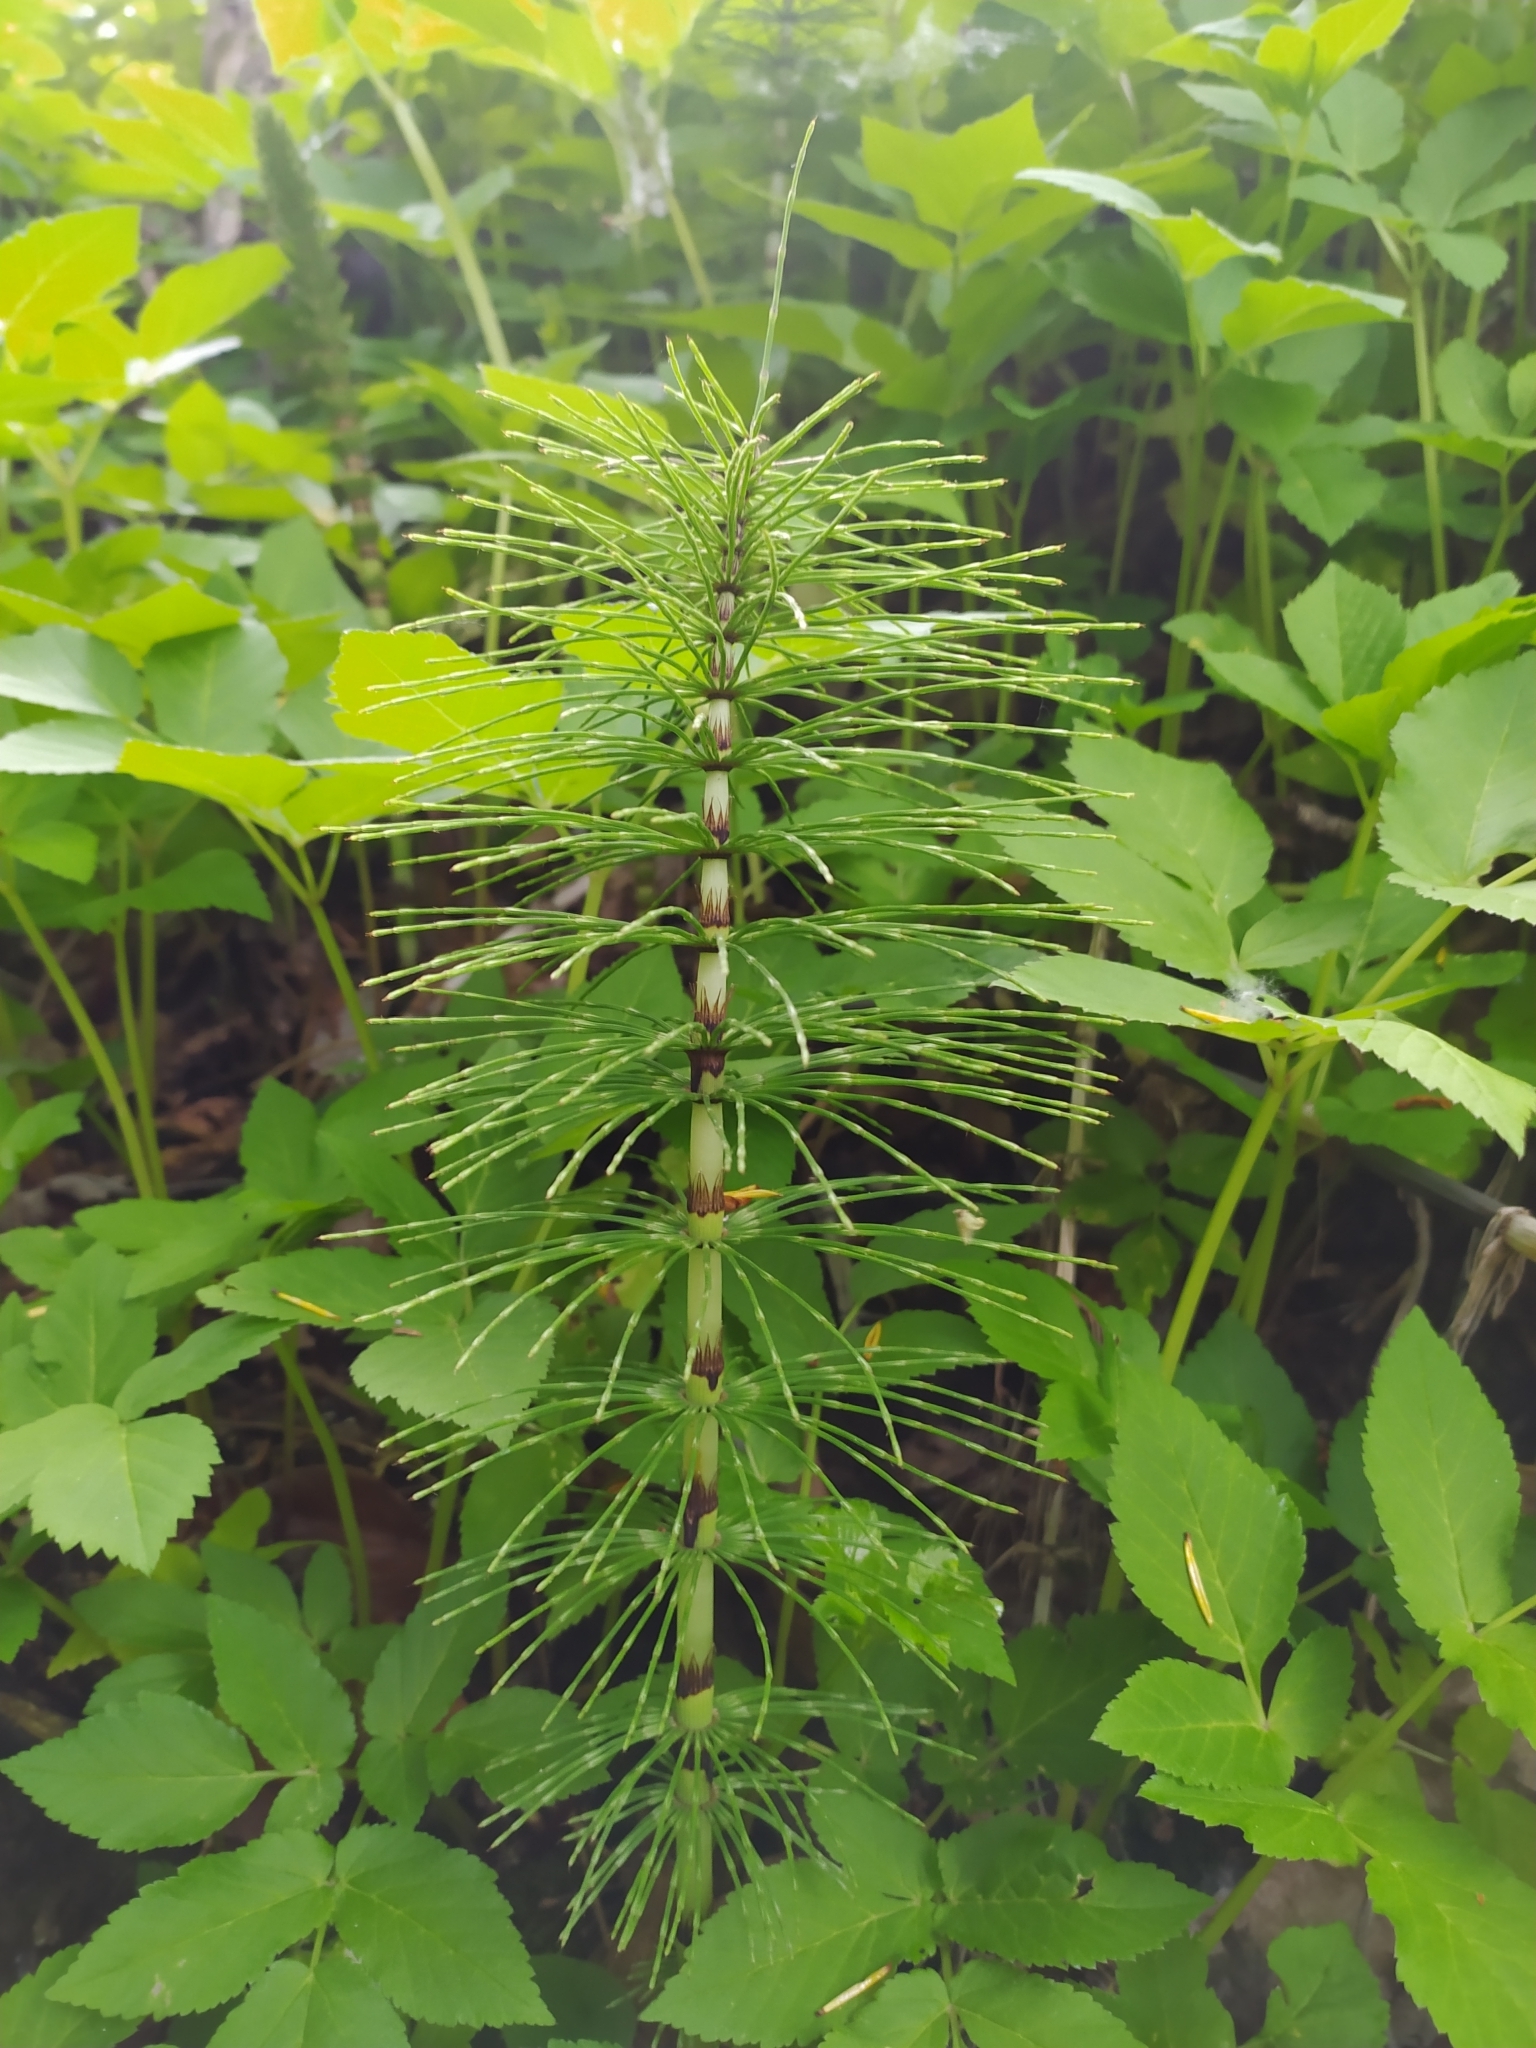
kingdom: Plantae
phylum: Tracheophyta
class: Polypodiopsida
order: Equisetales
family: Equisetaceae
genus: Equisetum
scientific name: Equisetum telmateia
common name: Great horsetail
